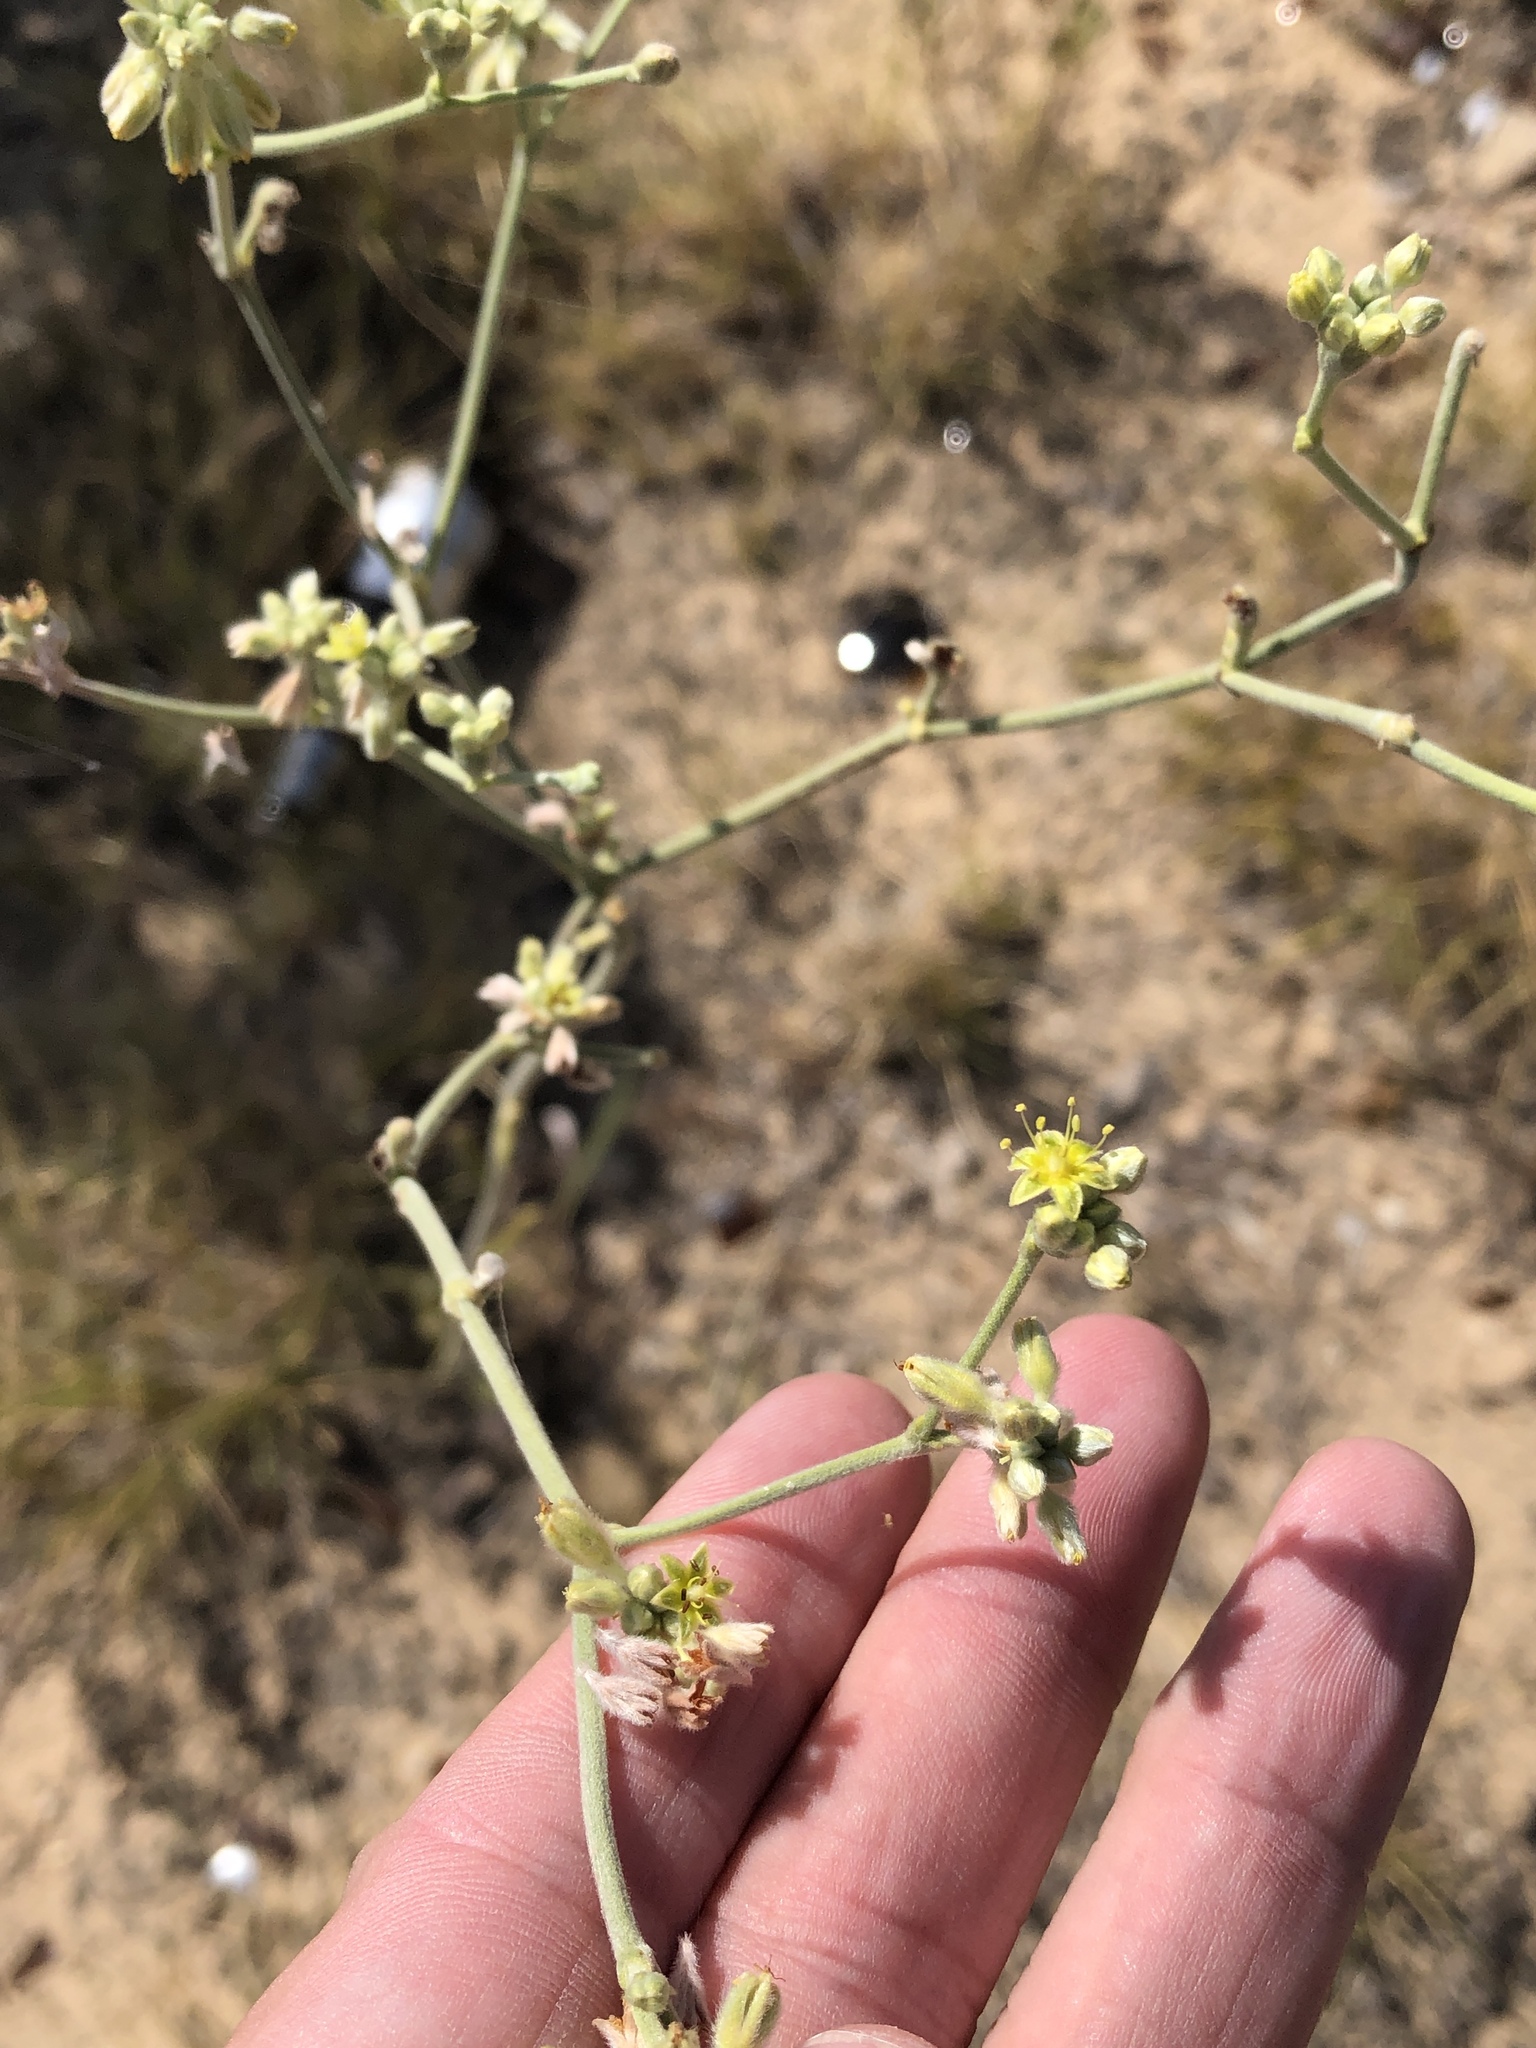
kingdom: Plantae
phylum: Tracheophyta
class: Magnoliopsida
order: Caryophyllales
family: Polygonaceae
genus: Eriogonum
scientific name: Eriogonum longifolium
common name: Longleaf wild buckwheat
